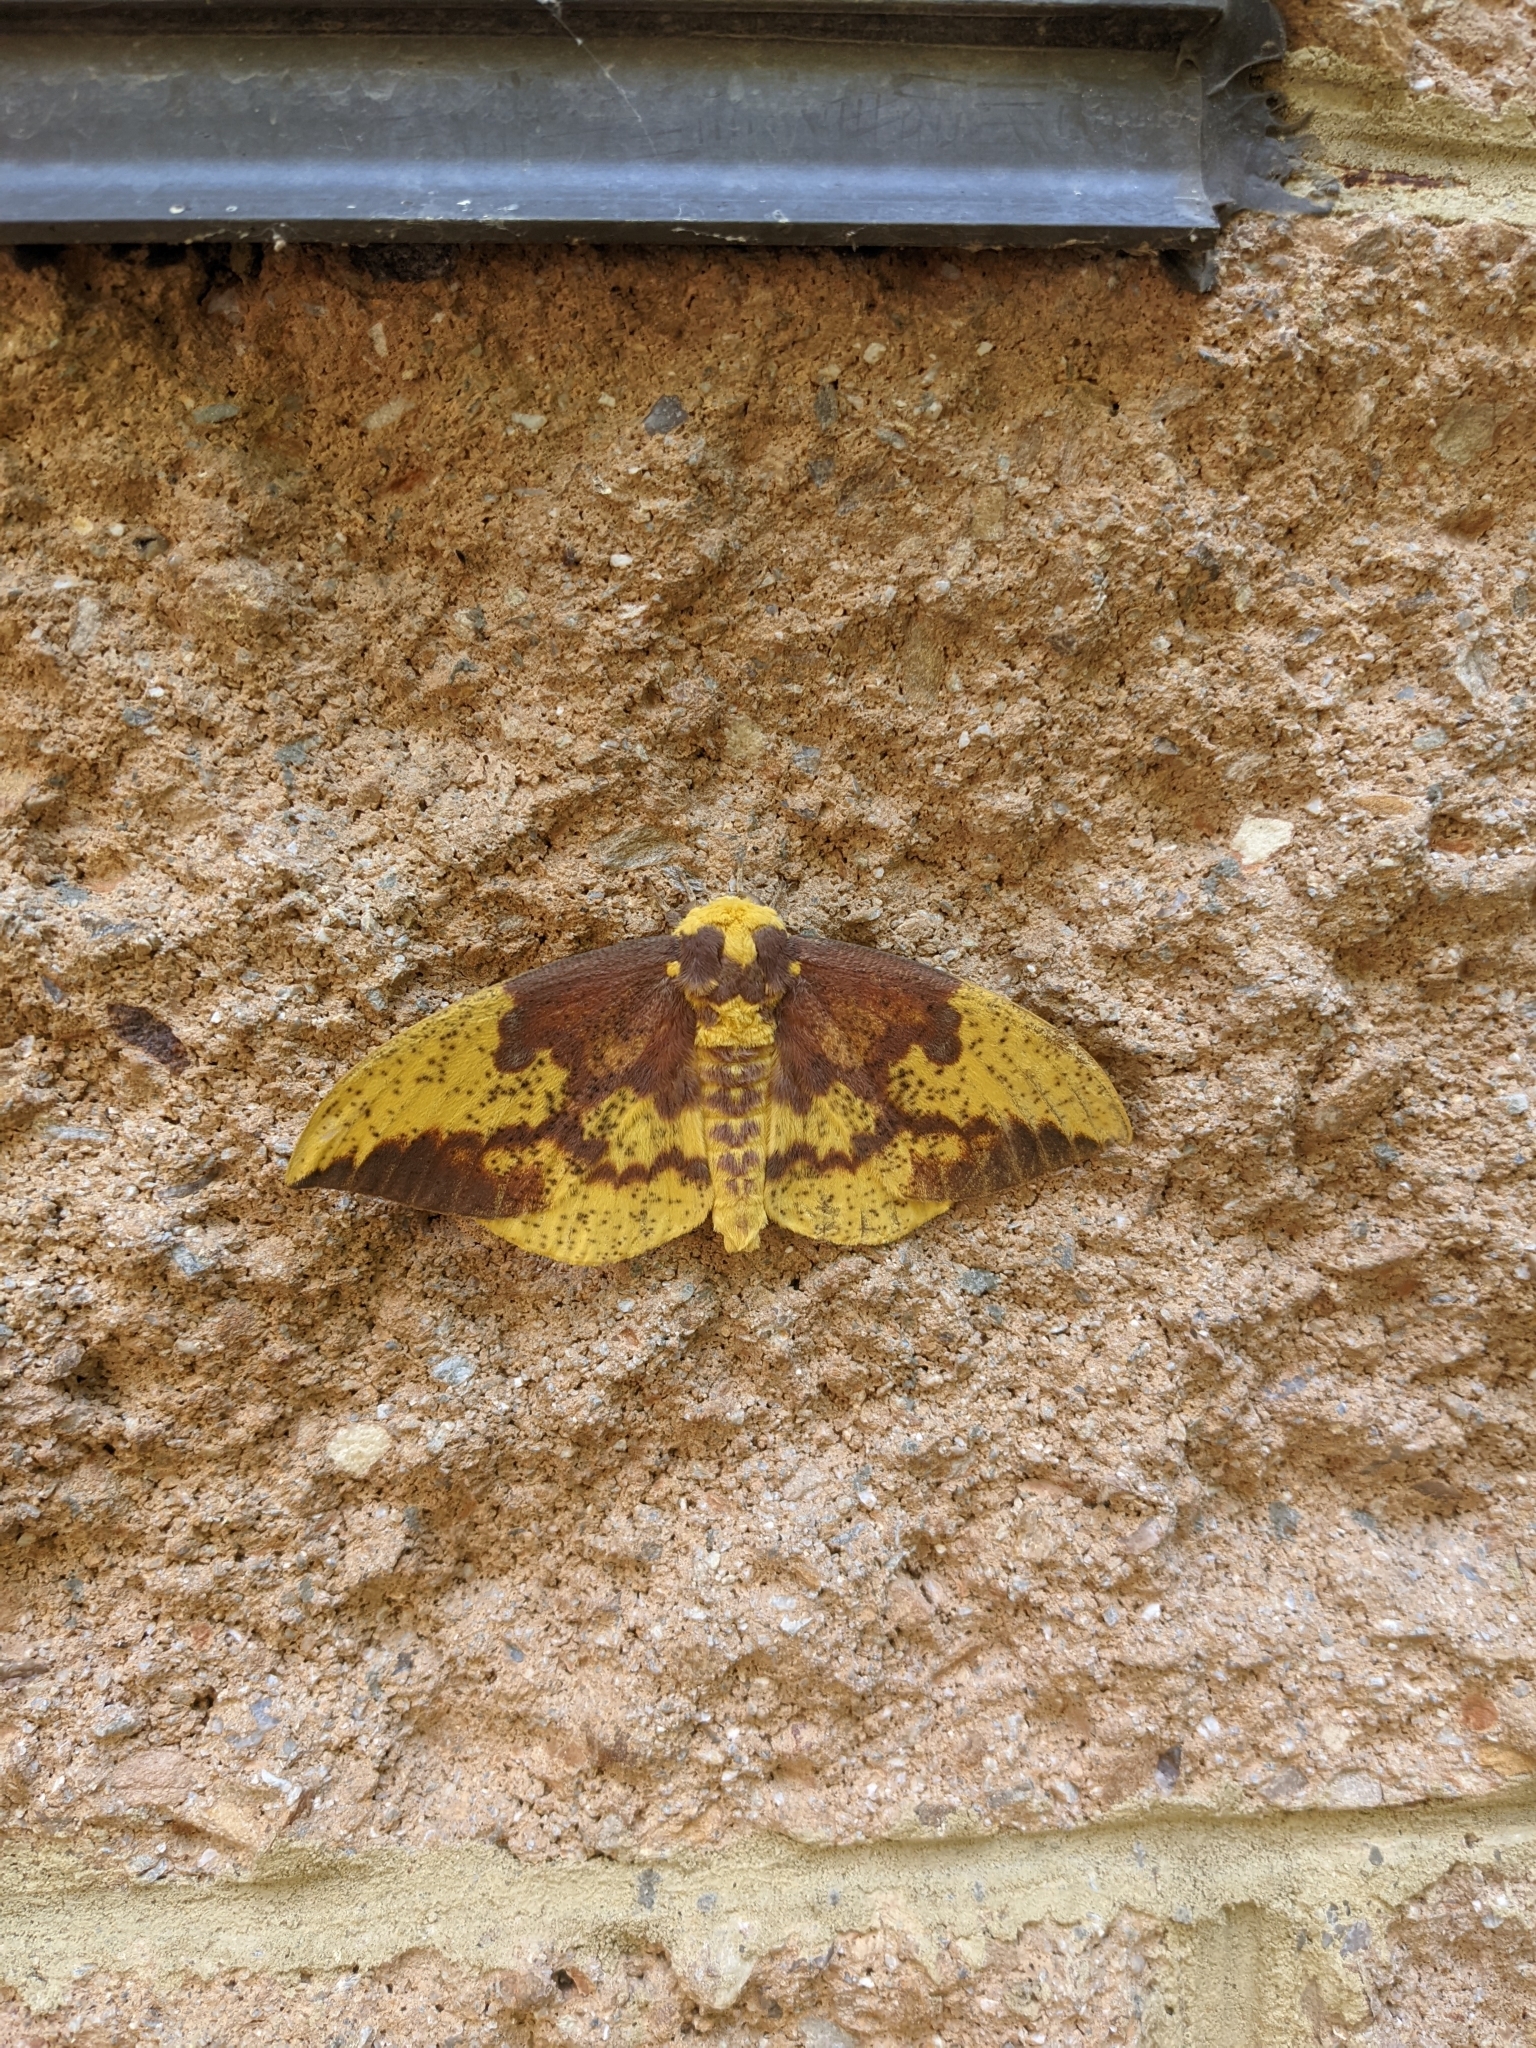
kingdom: Animalia
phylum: Arthropoda
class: Insecta
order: Lepidoptera
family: Saturniidae
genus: Eacles
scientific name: Eacles imperialis
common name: Imperial moth
